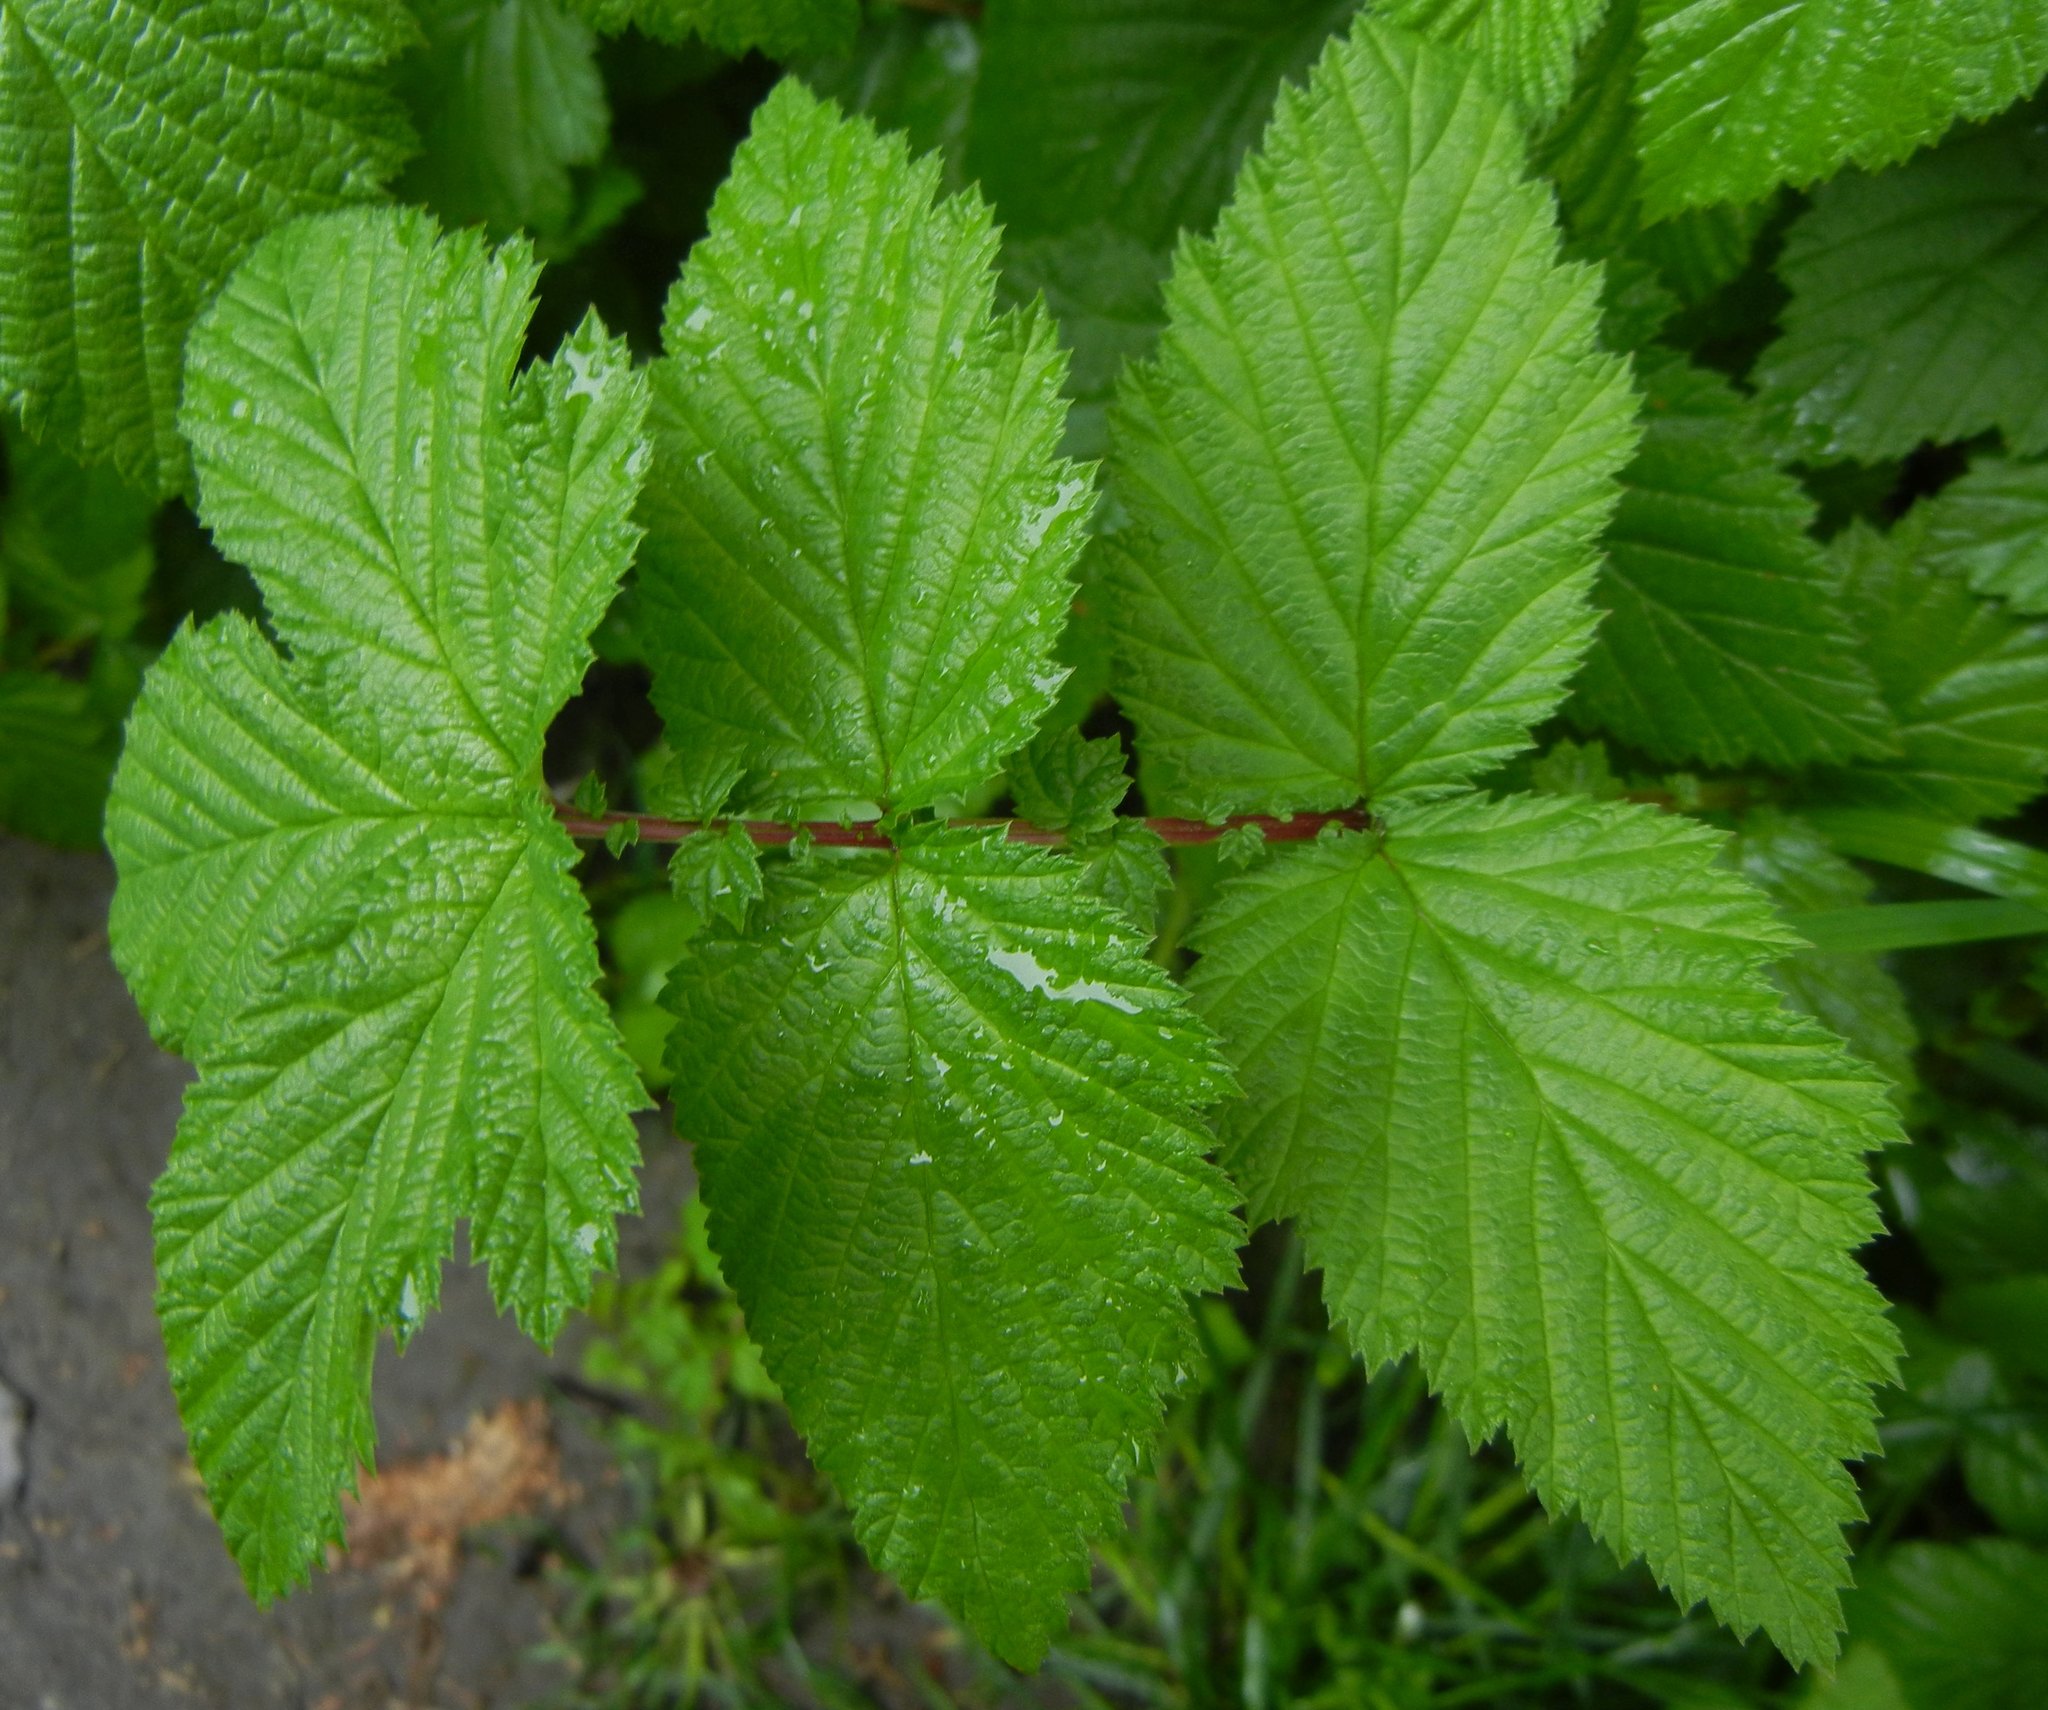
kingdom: Plantae
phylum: Tracheophyta
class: Magnoliopsida
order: Rosales
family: Rosaceae
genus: Filipendula
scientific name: Filipendula ulmaria
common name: Meadowsweet
